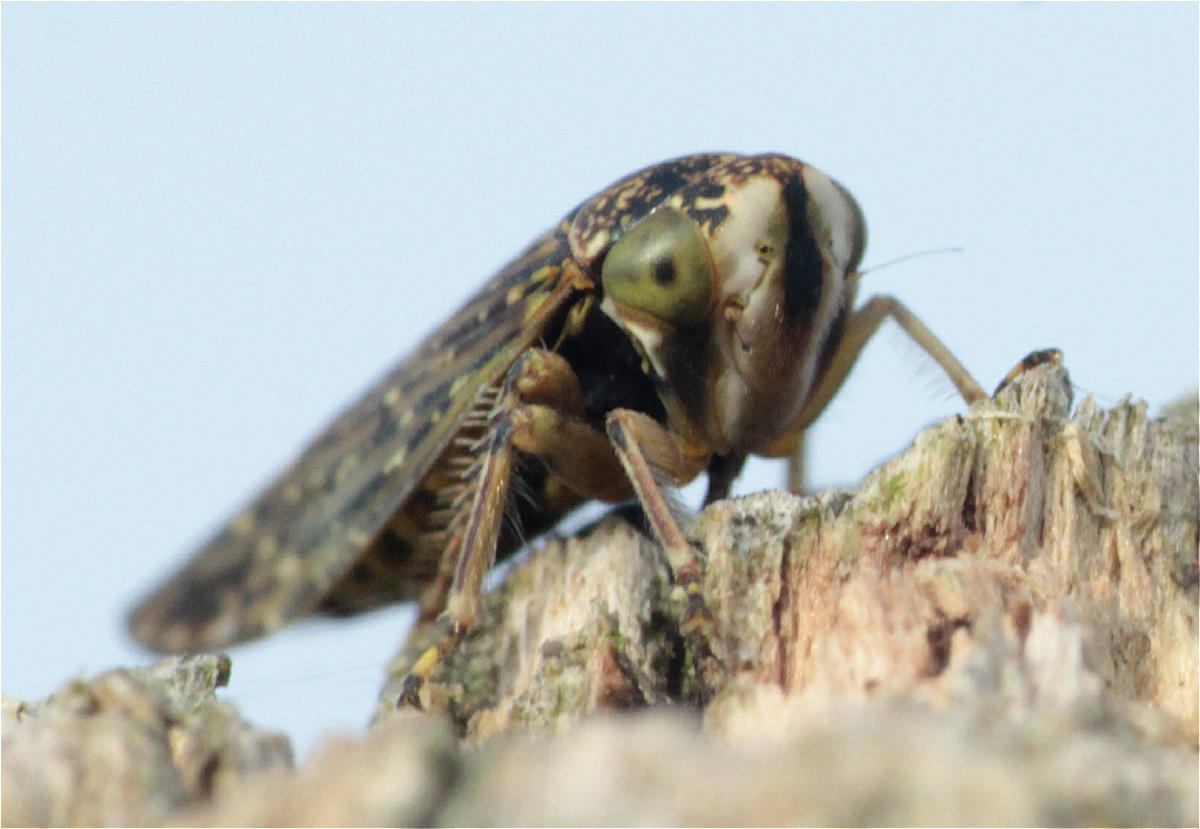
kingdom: Animalia
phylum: Arthropoda
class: Insecta
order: Hemiptera
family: Cicadellidae
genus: Acericerus
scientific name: Acericerus heydenii
